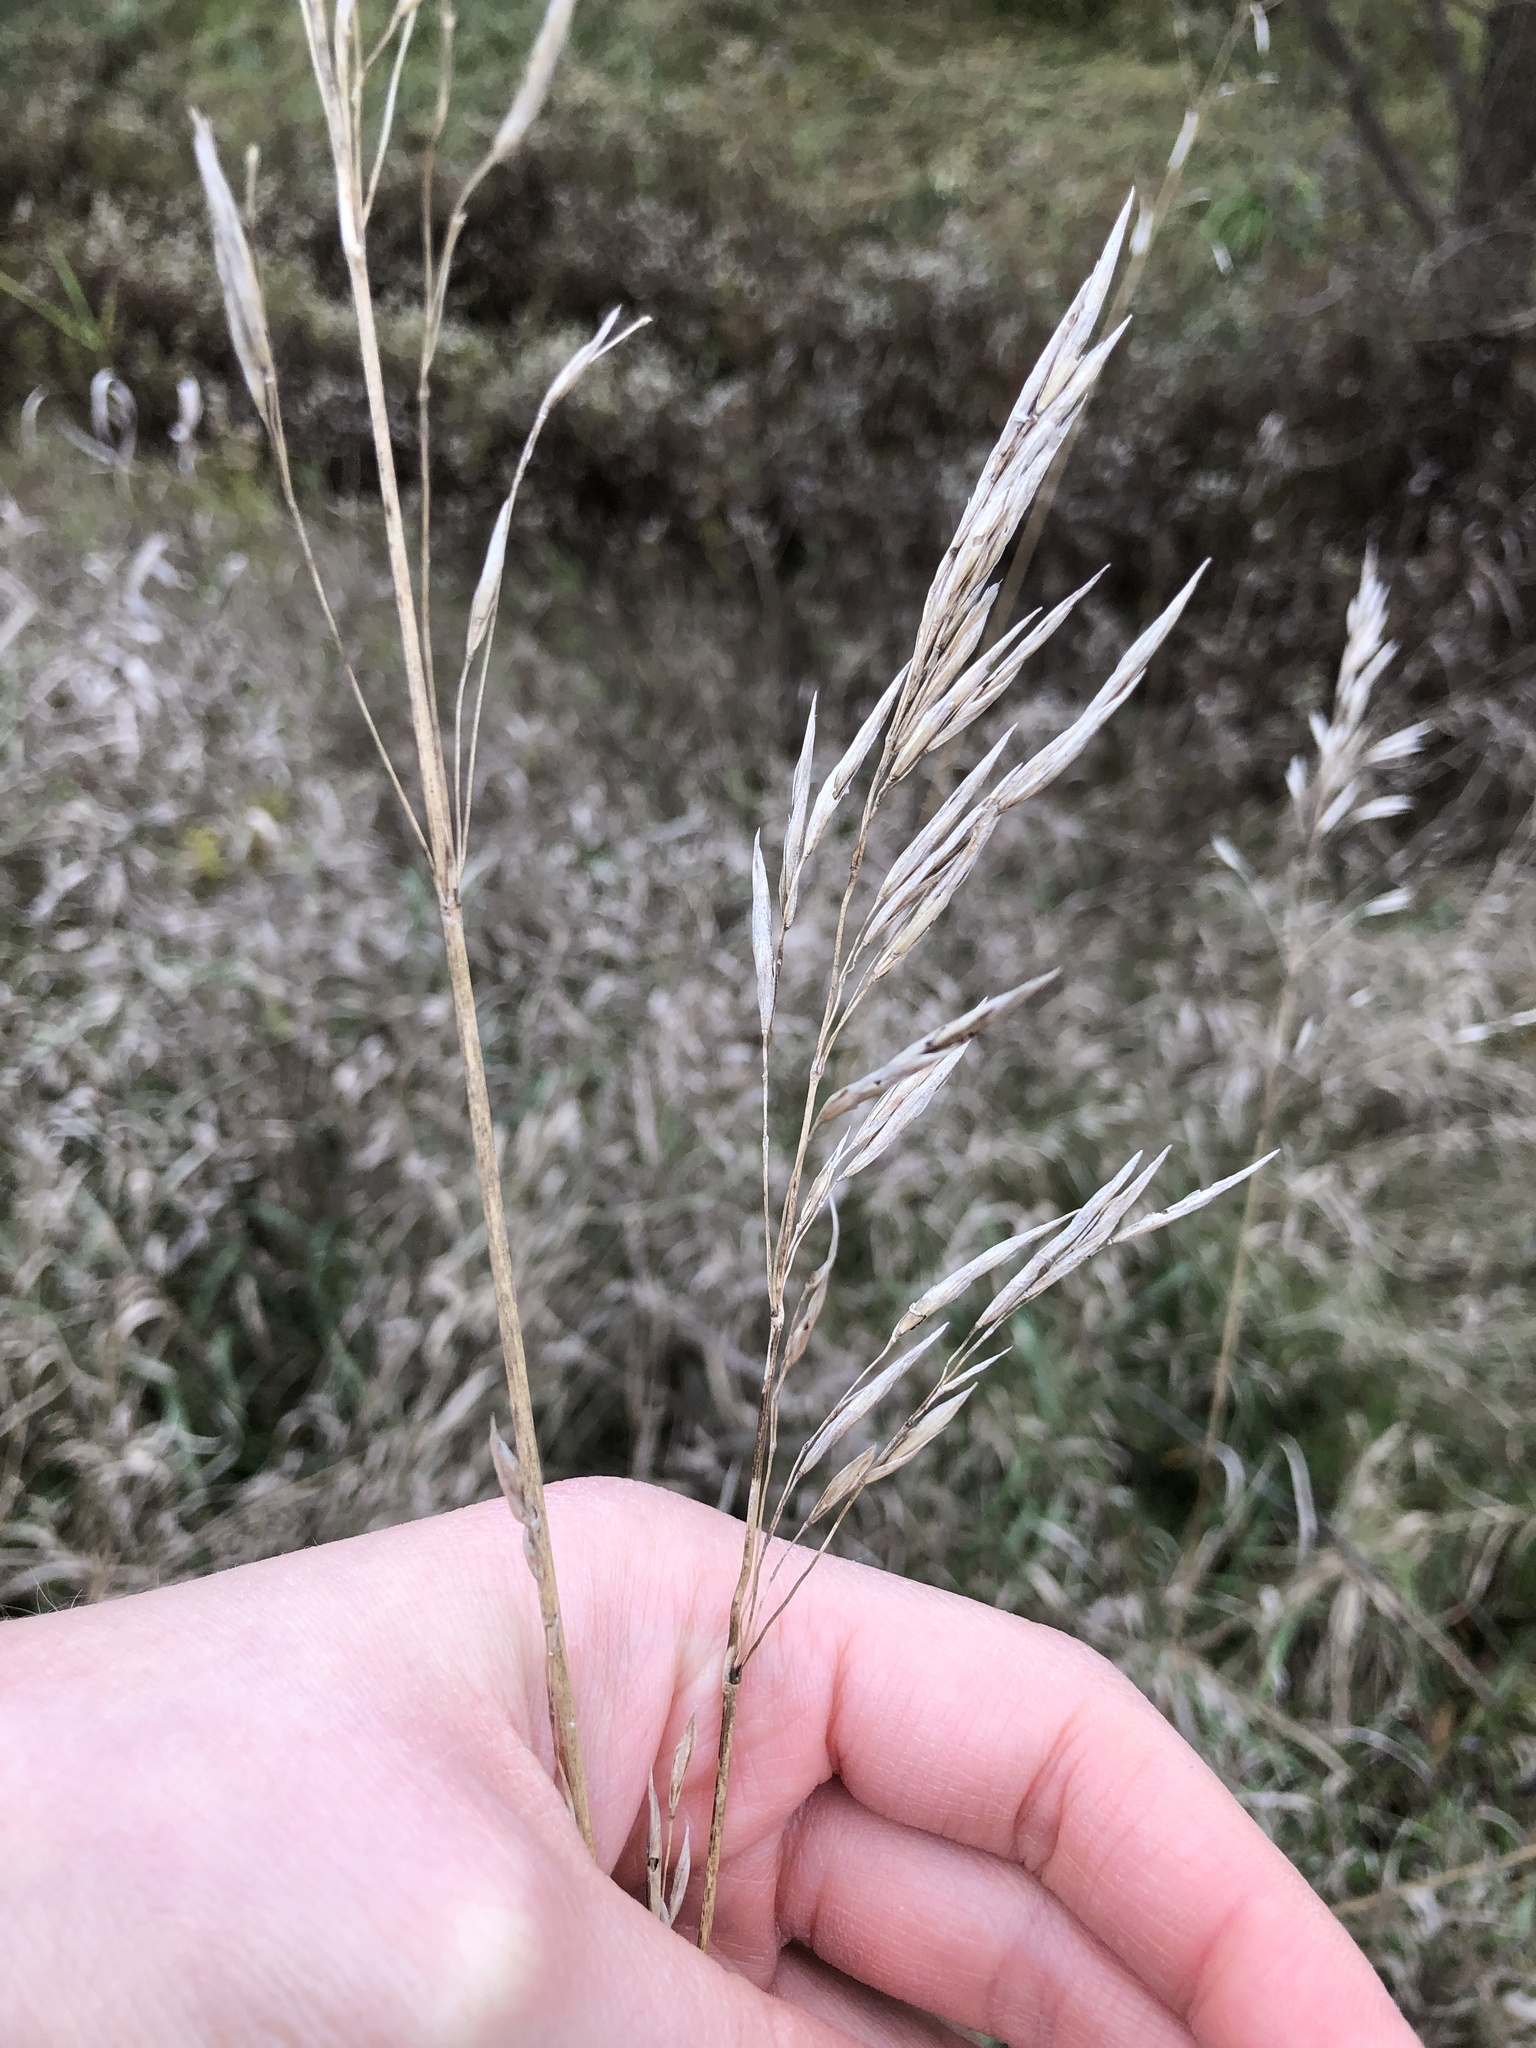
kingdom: Plantae
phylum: Tracheophyta
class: Liliopsida
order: Poales
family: Poaceae
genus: Bromus
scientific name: Bromus inermis
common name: Smooth brome
